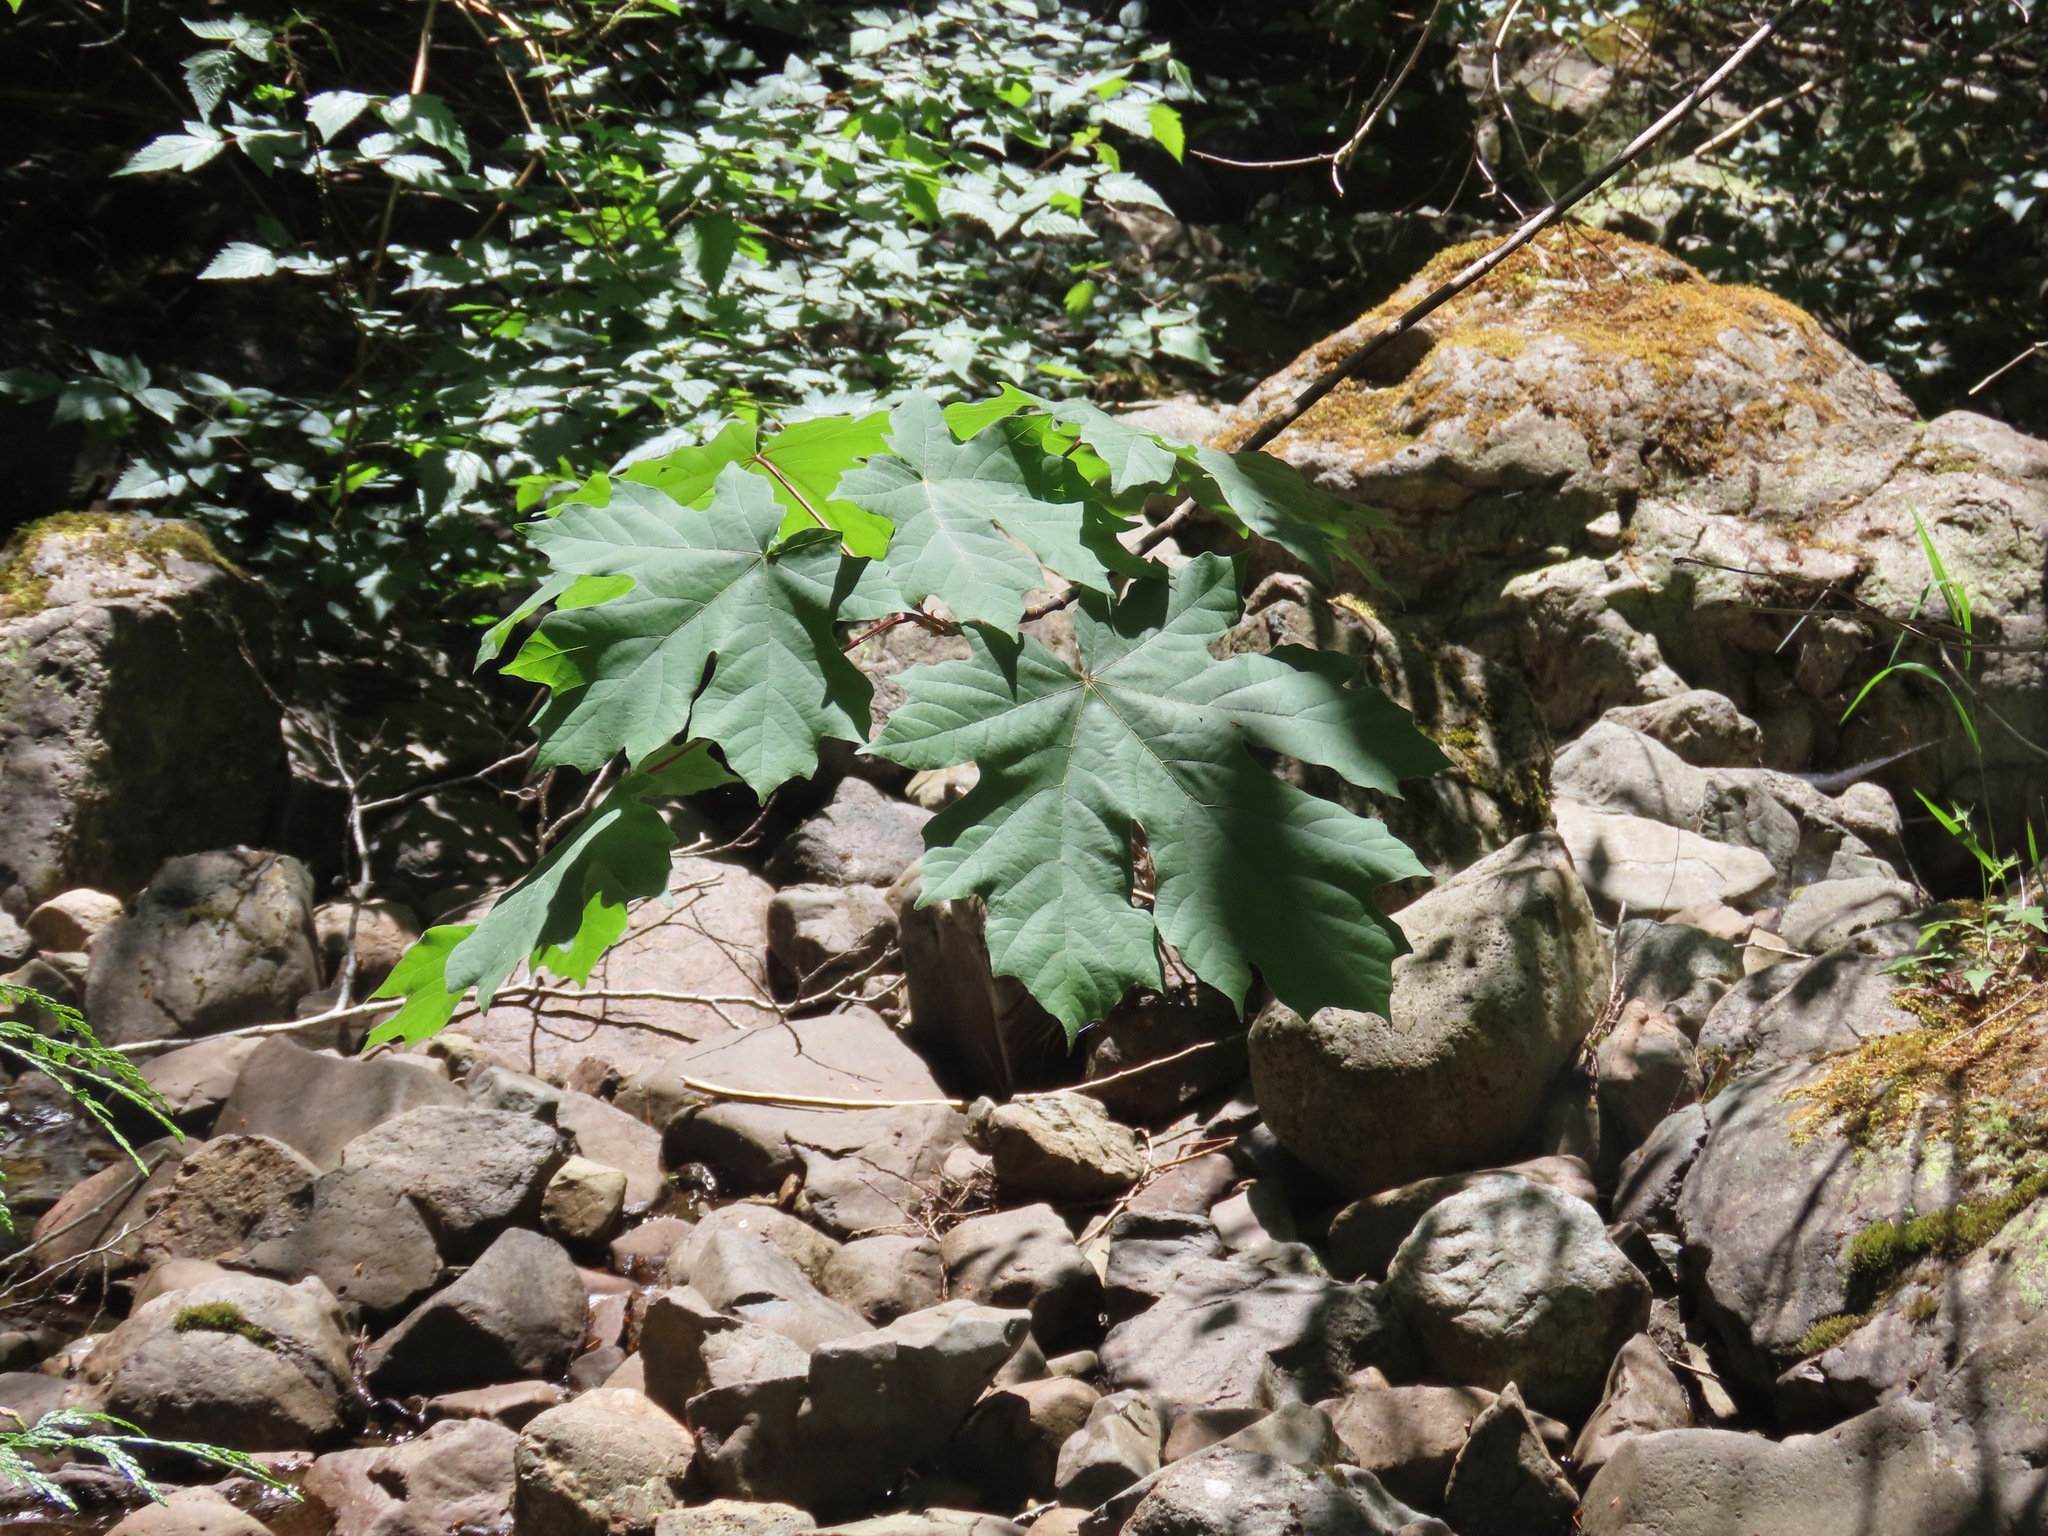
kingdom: Plantae
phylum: Tracheophyta
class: Magnoliopsida
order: Sapindales
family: Sapindaceae
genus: Acer
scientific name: Acer macrophyllum
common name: Oregon maple
